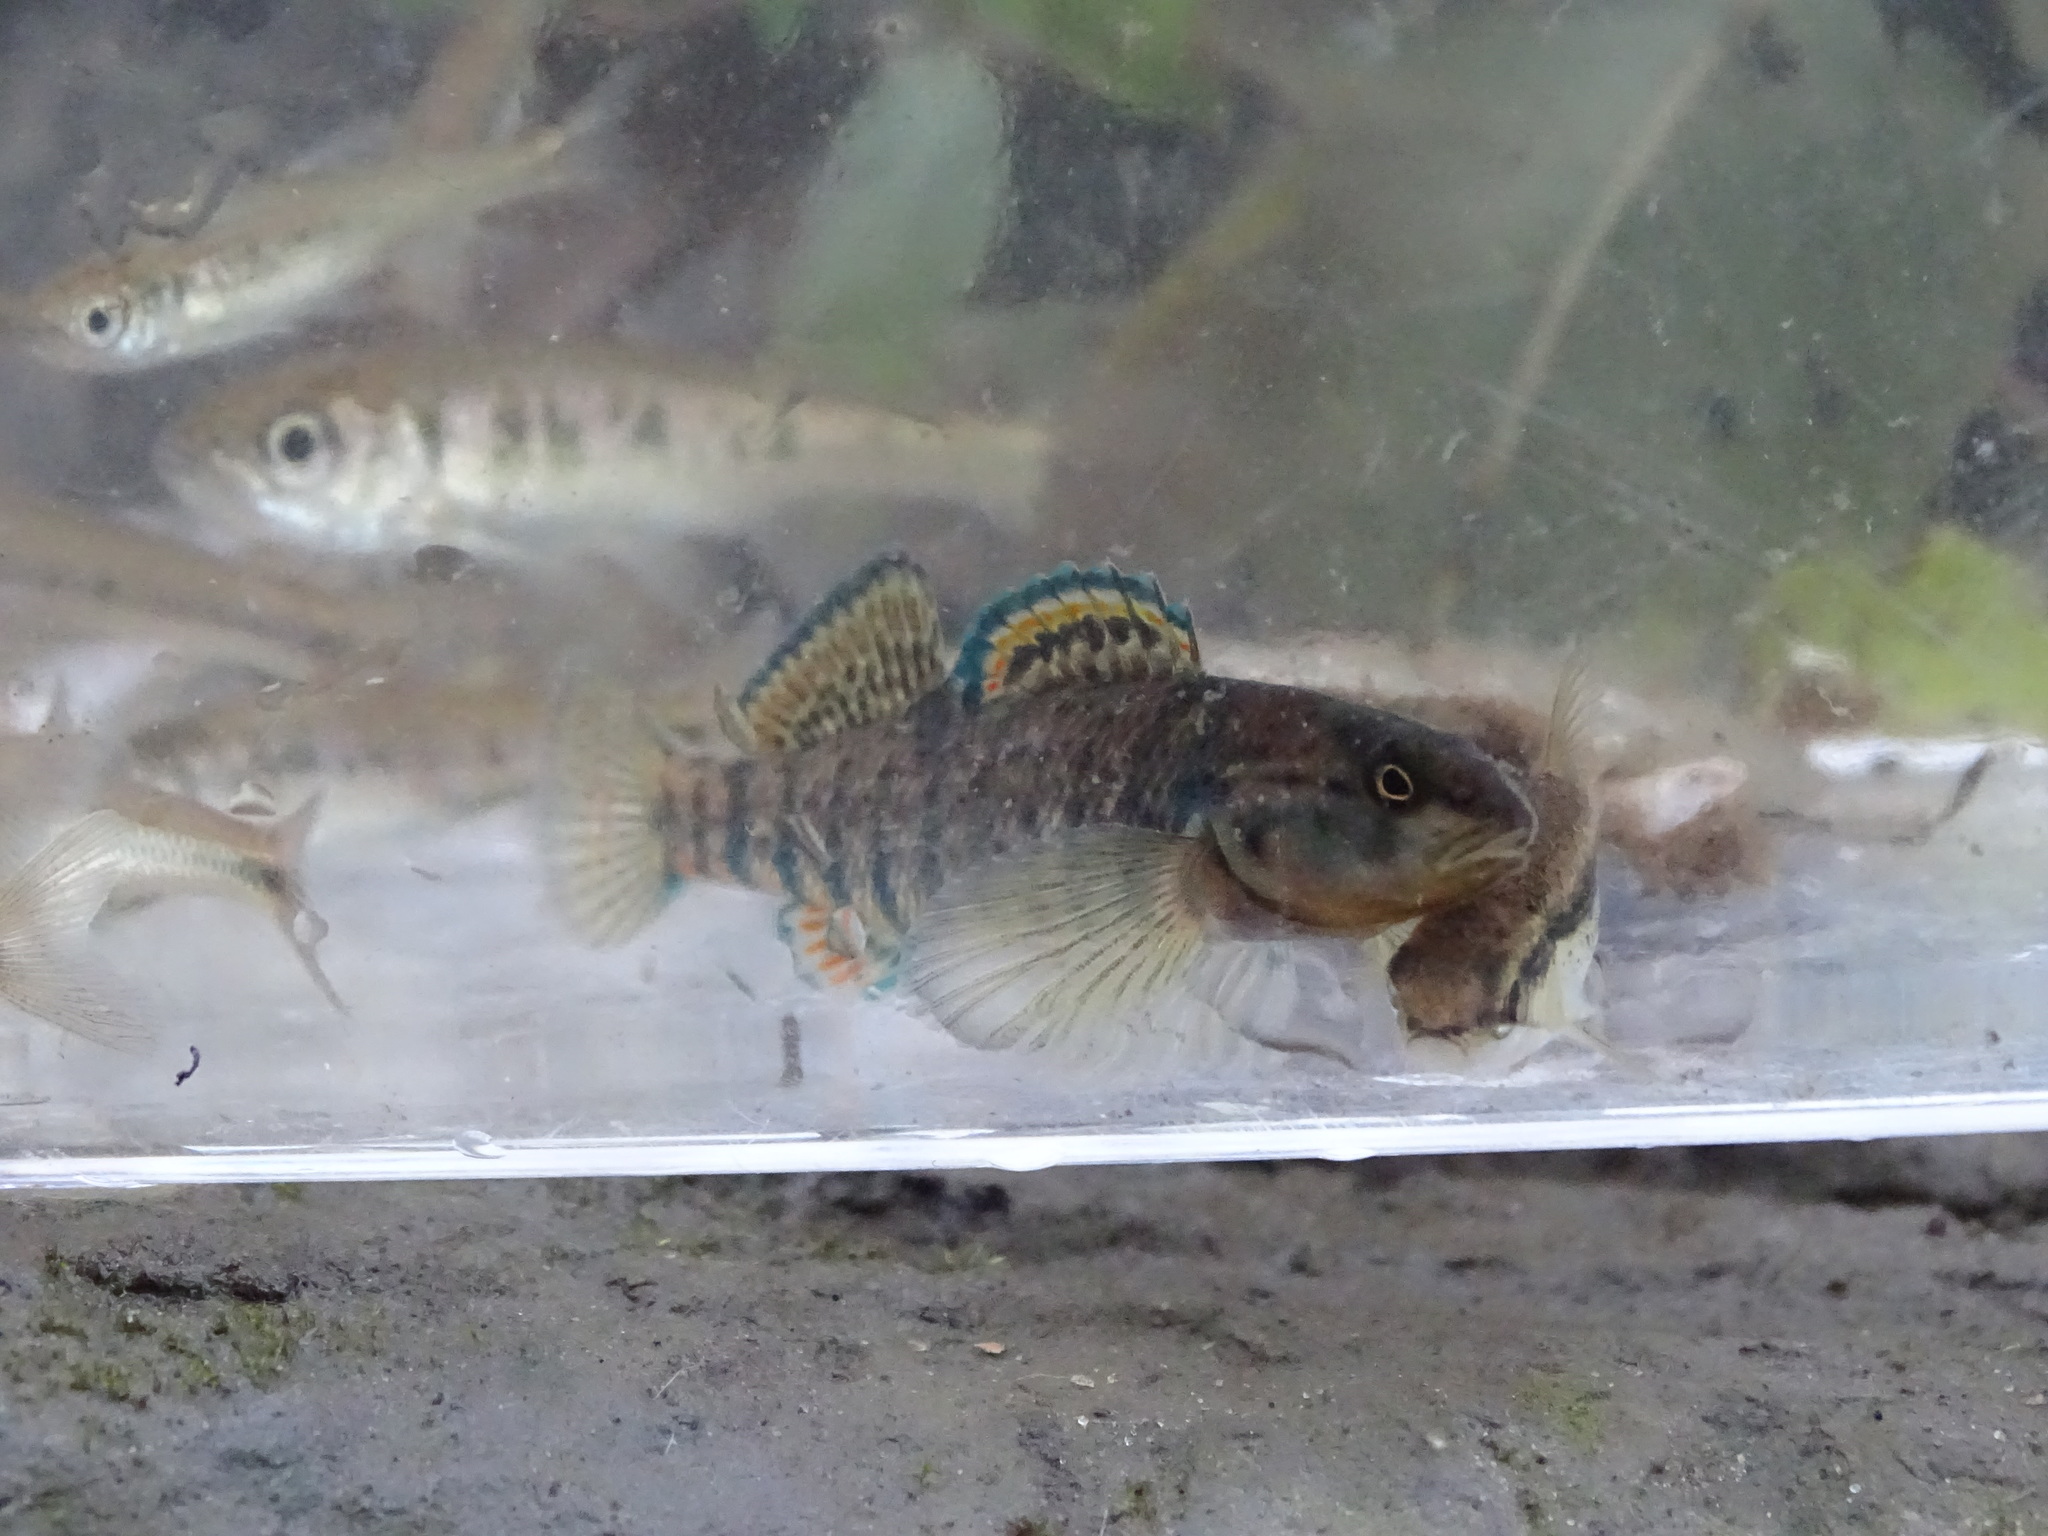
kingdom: Animalia
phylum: Chordata
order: Perciformes
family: Percidae
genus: Etheostoma
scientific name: Etheostoma caeruleum
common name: Rainbow darter
